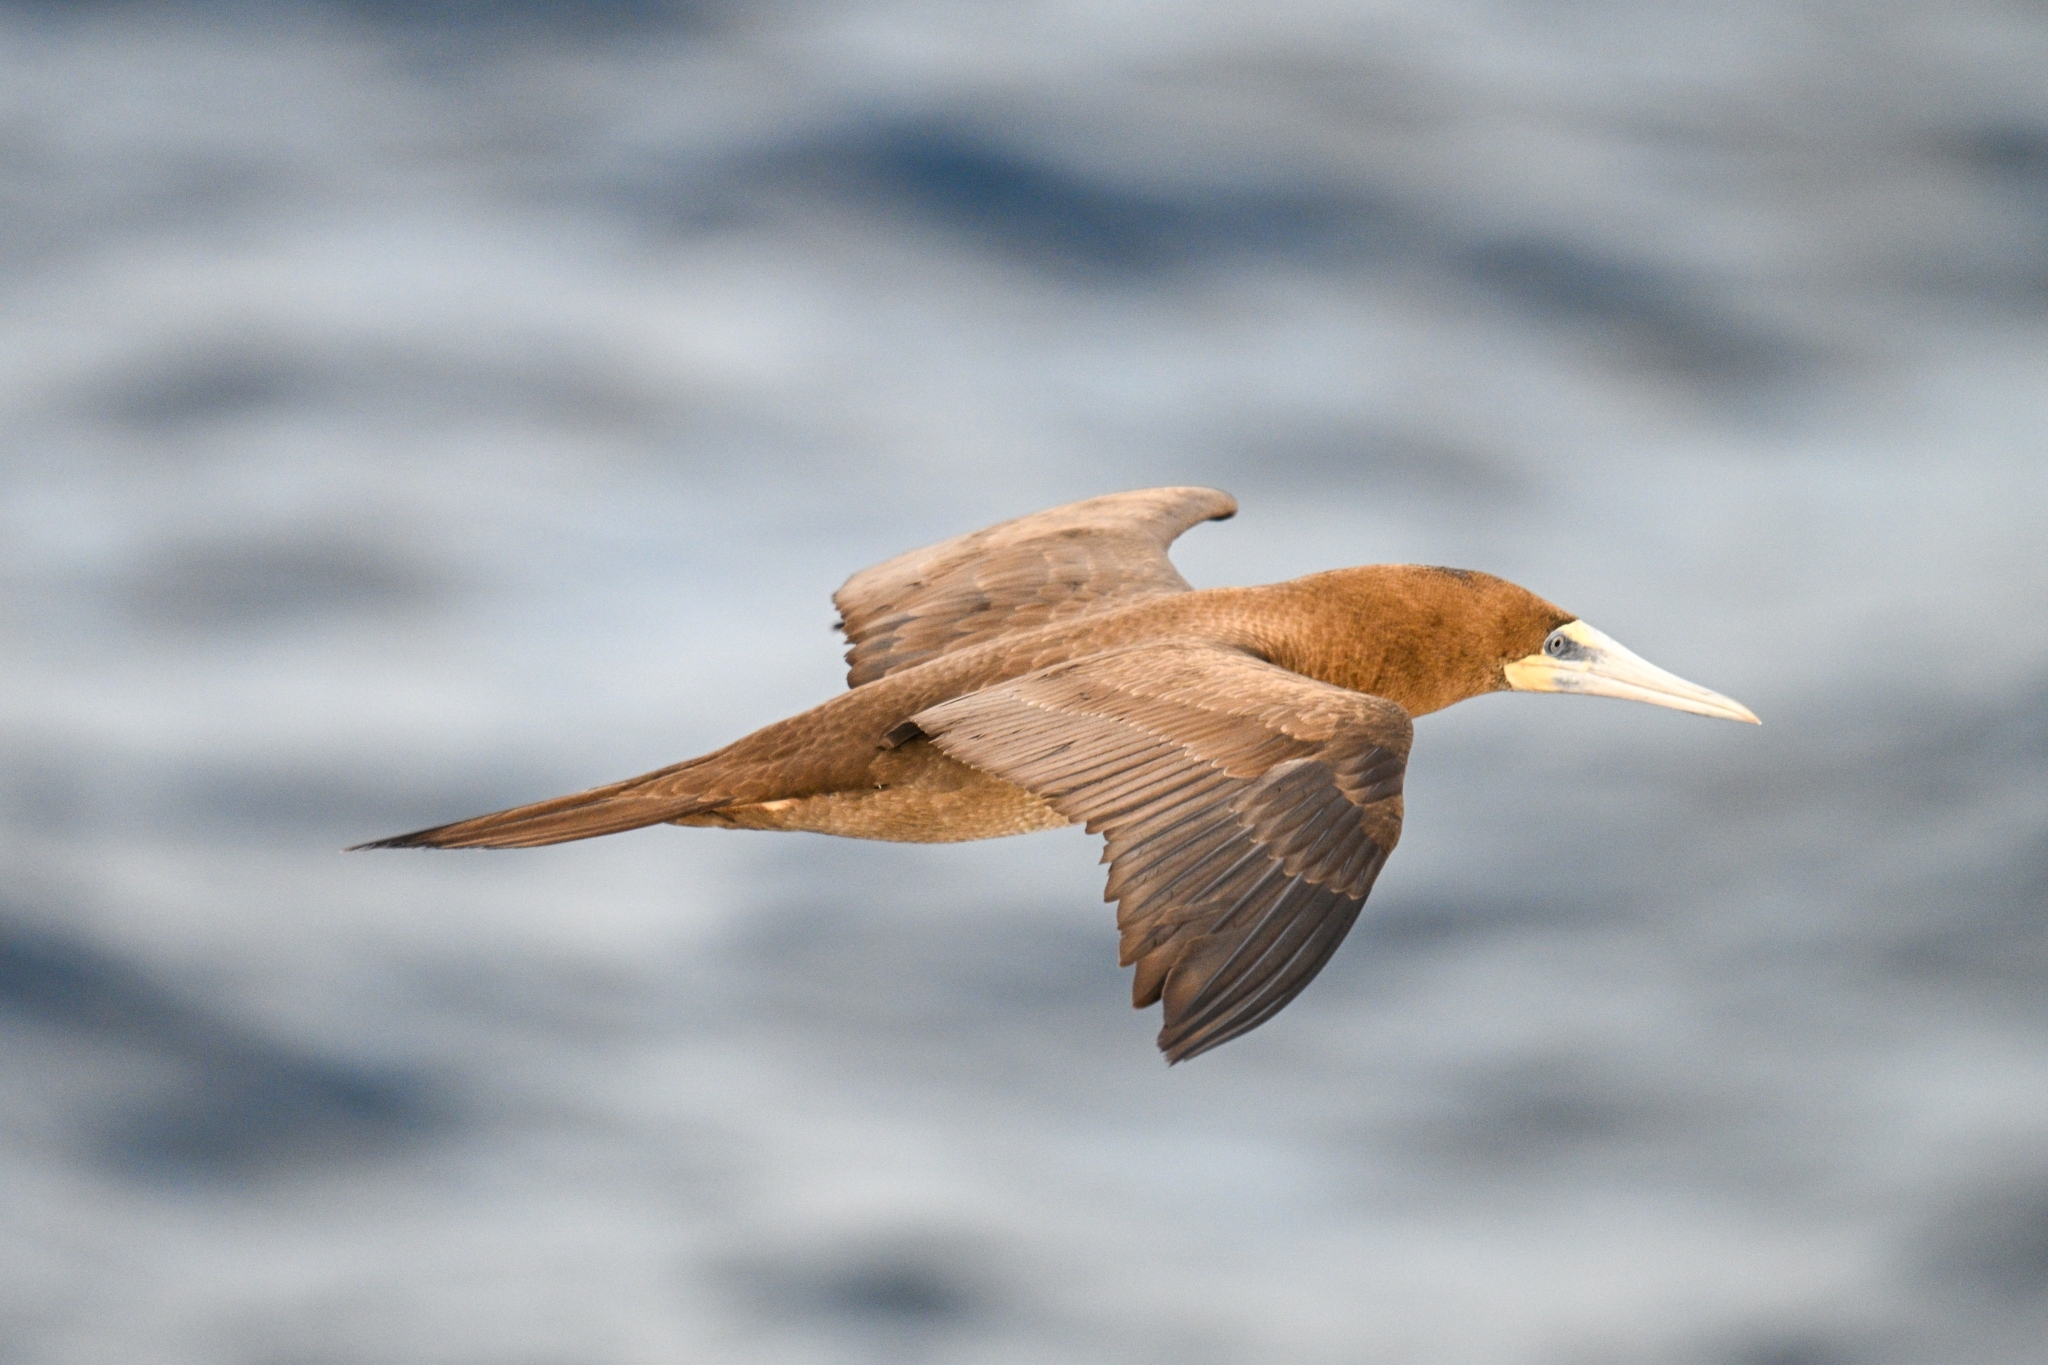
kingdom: Animalia
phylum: Chordata
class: Aves
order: Suliformes
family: Sulidae
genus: Sula
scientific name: Sula leucogaster
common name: Brown booby
